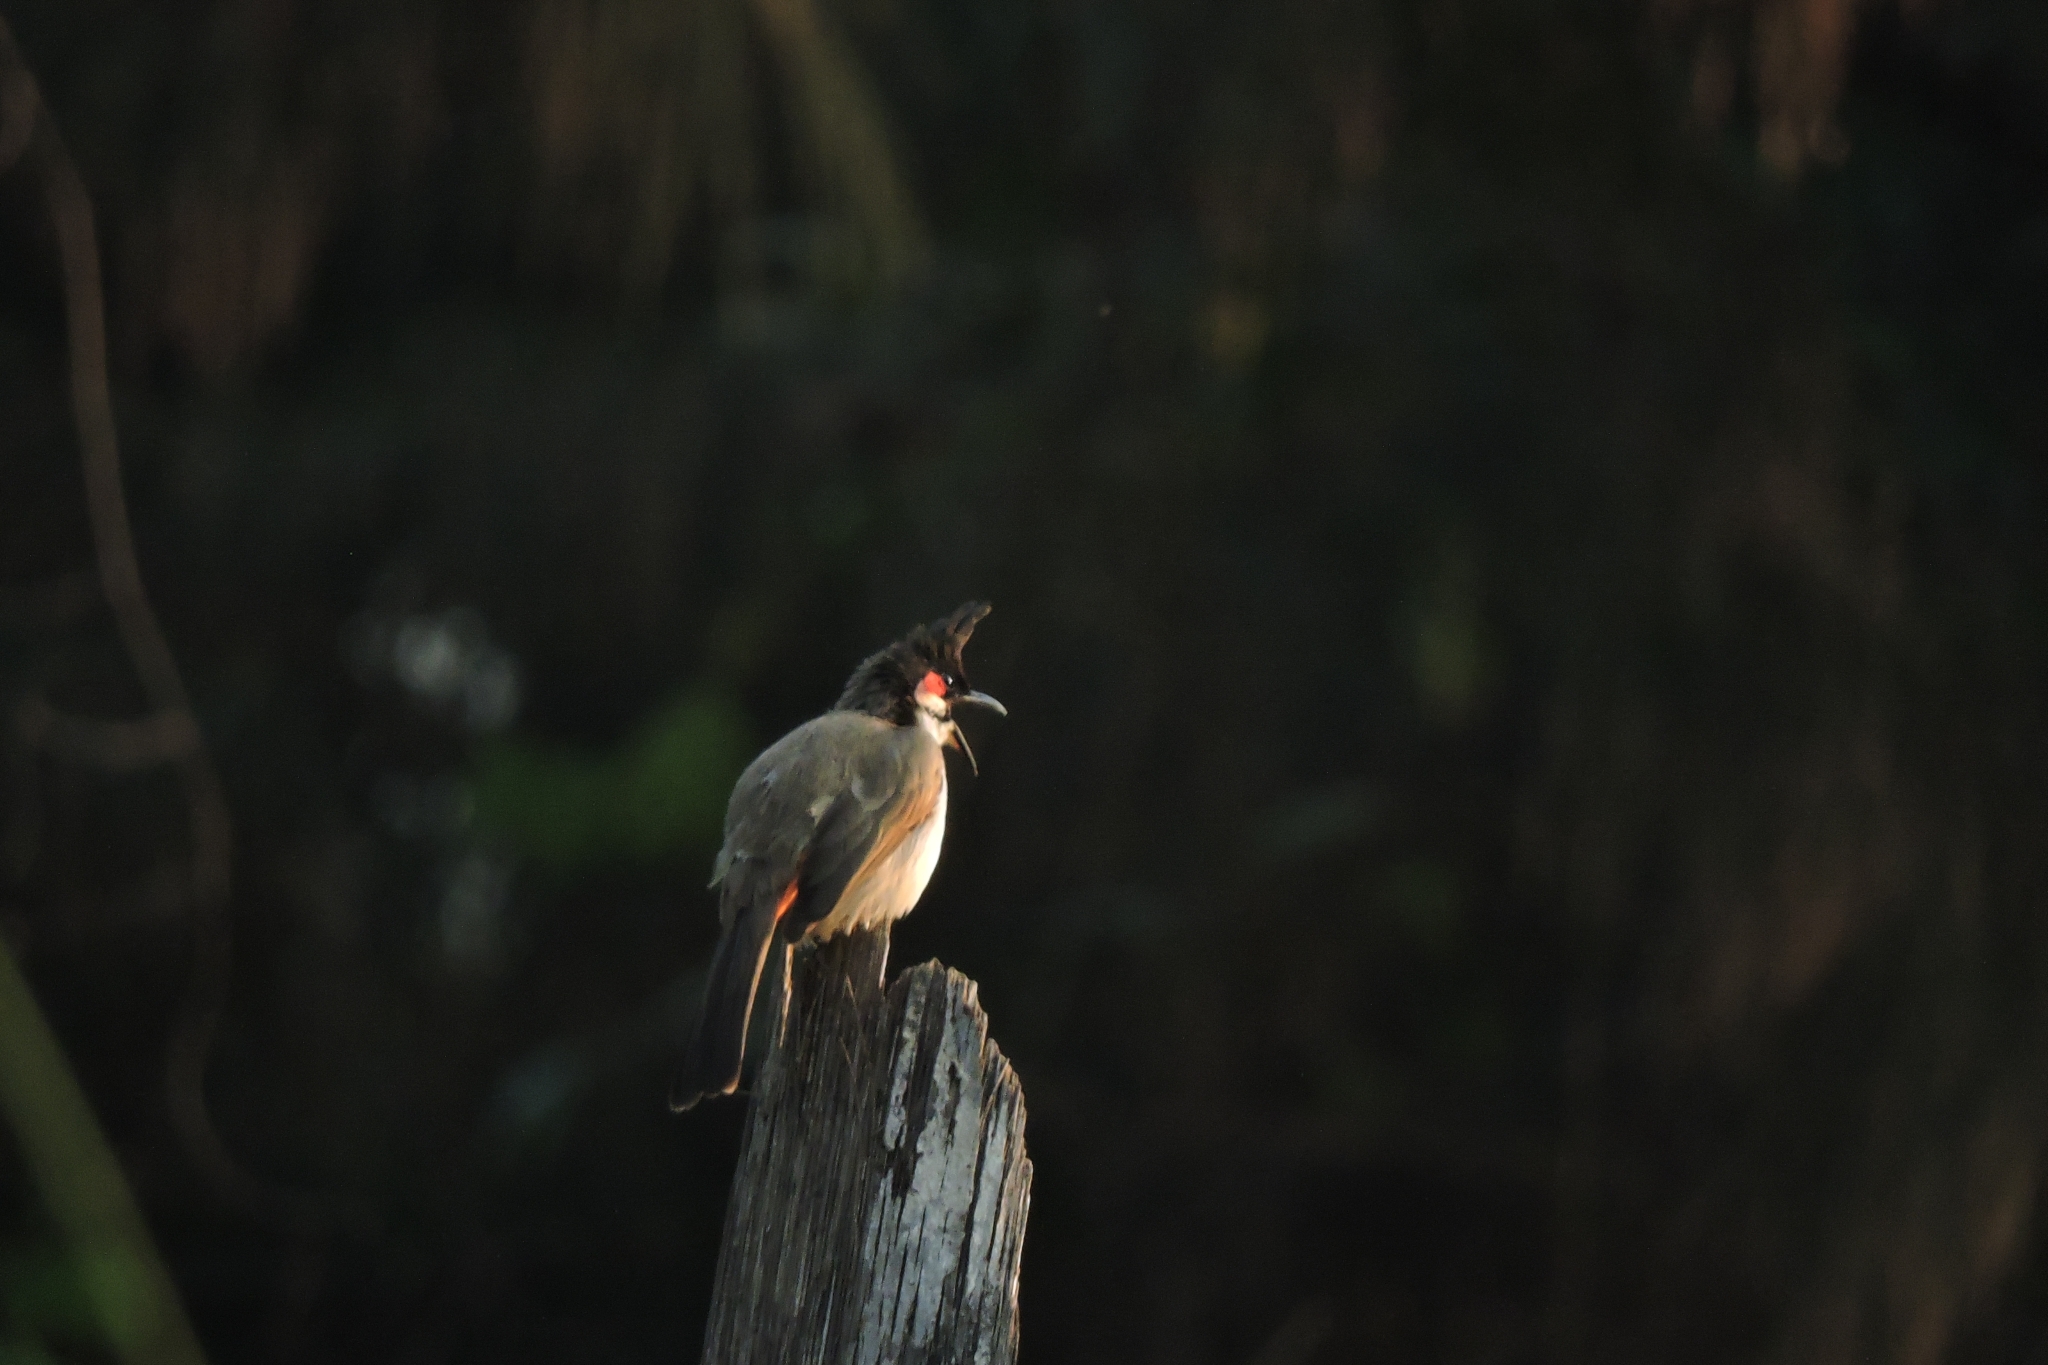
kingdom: Animalia
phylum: Chordata
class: Aves
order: Passeriformes
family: Pycnonotidae
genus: Pycnonotus
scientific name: Pycnonotus jocosus
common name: Red-whiskered bulbul
